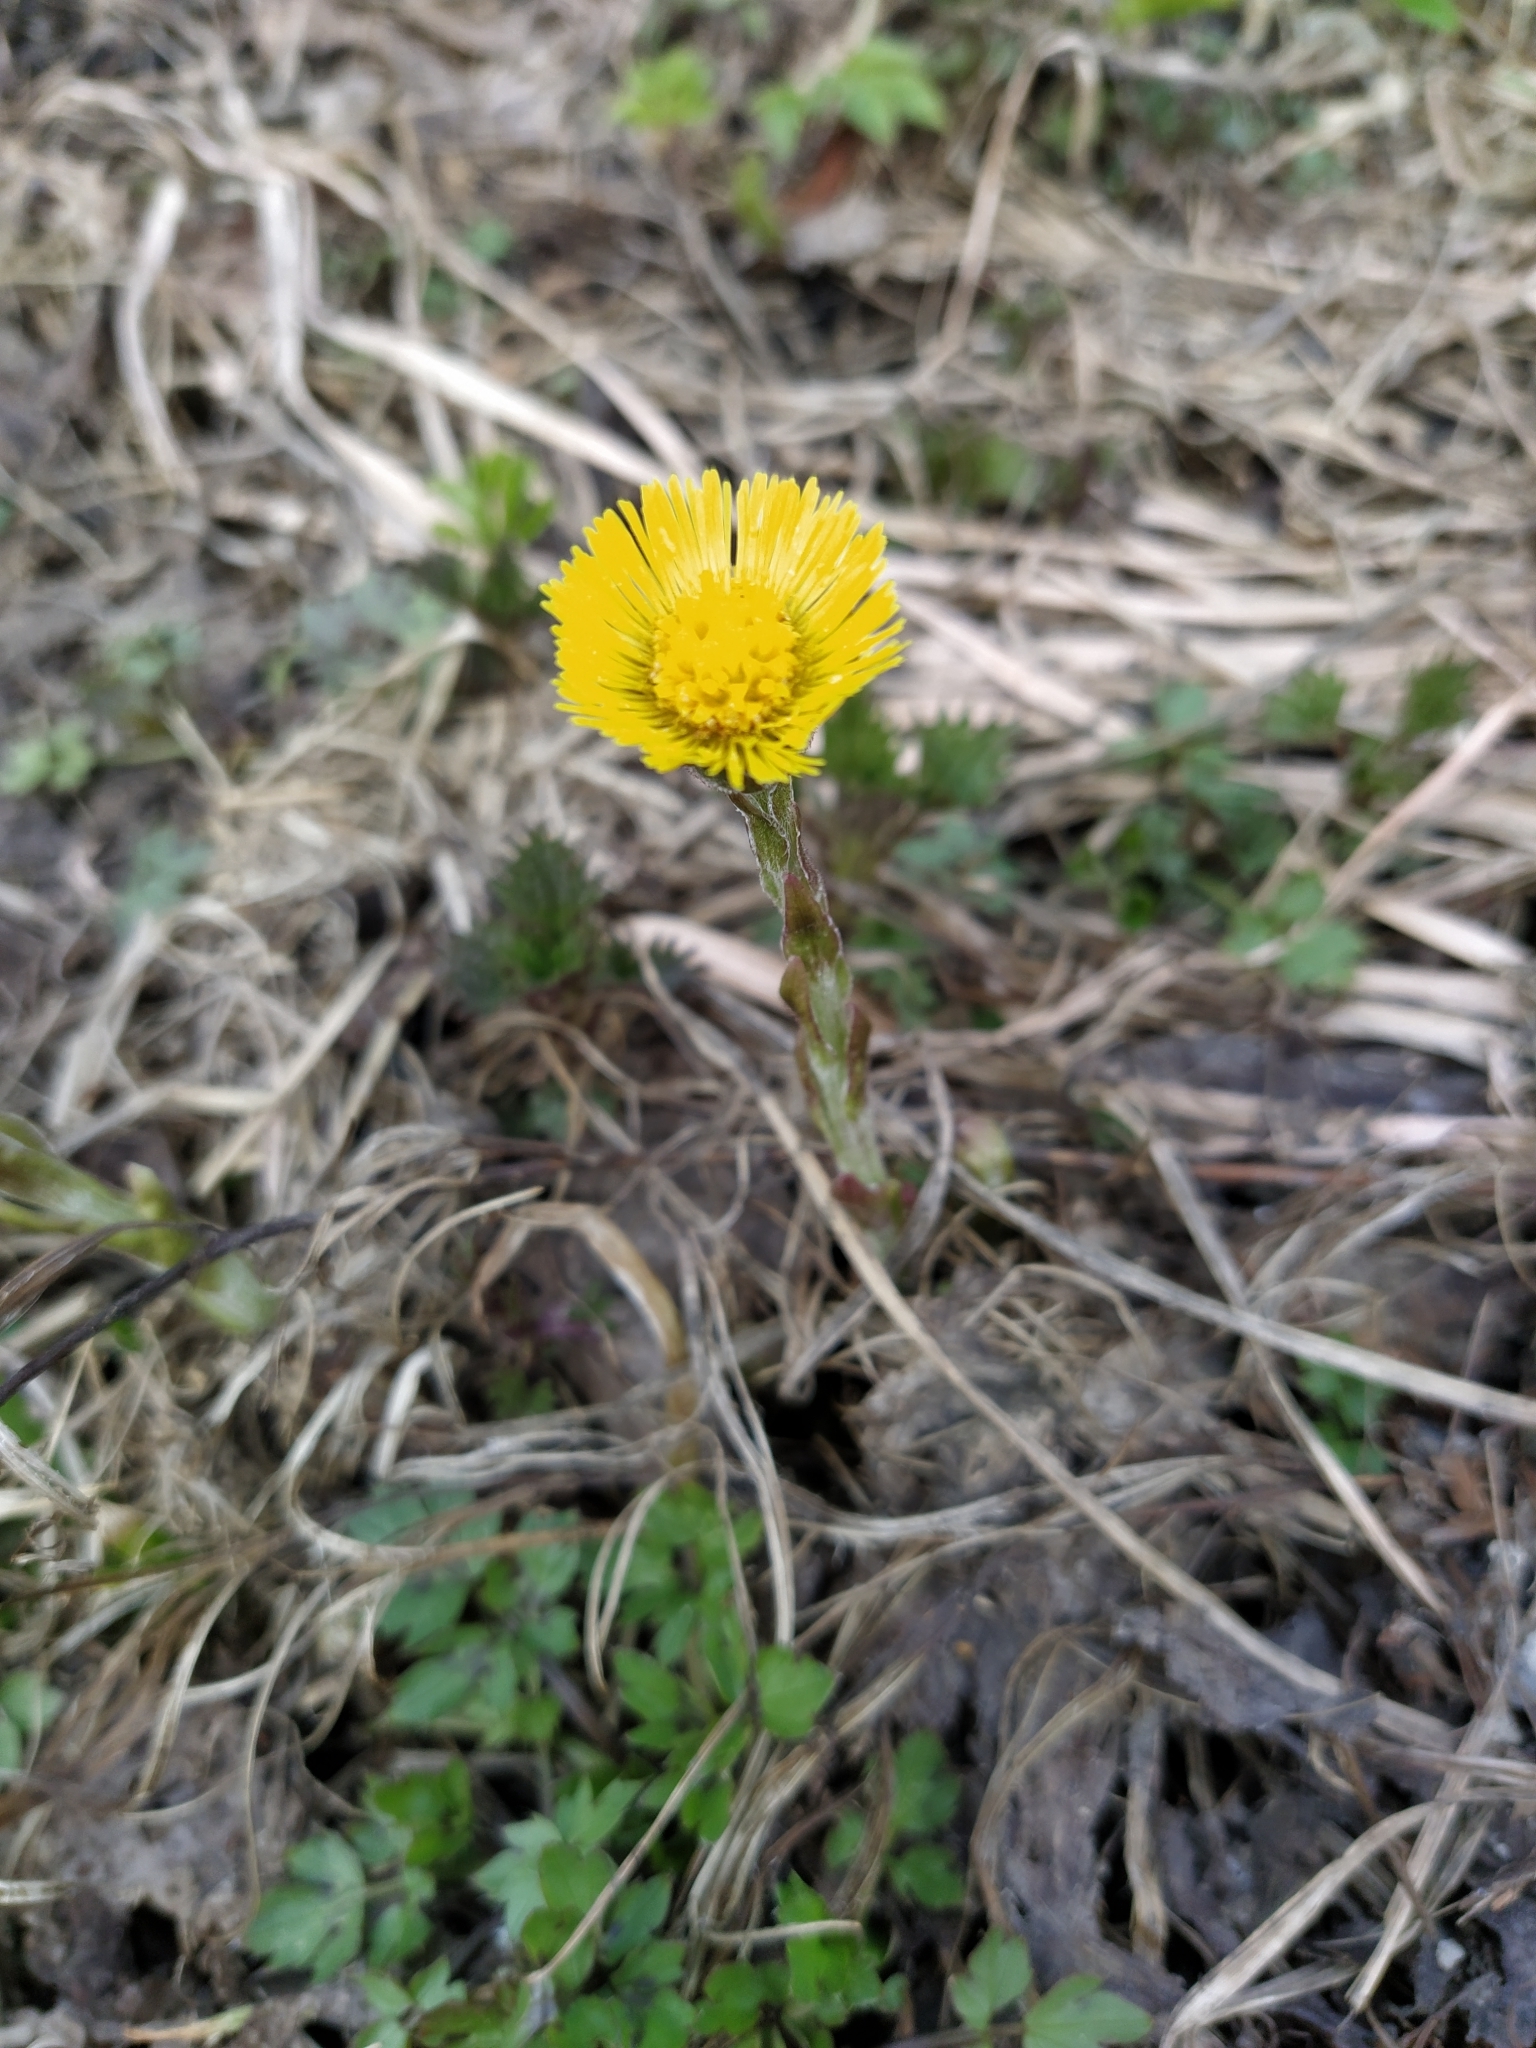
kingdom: Plantae
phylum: Tracheophyta
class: Magnoliopsida
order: Asterales
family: Asteraceae
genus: Tussilago
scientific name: Tussilago farfara
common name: Coltsfoot
